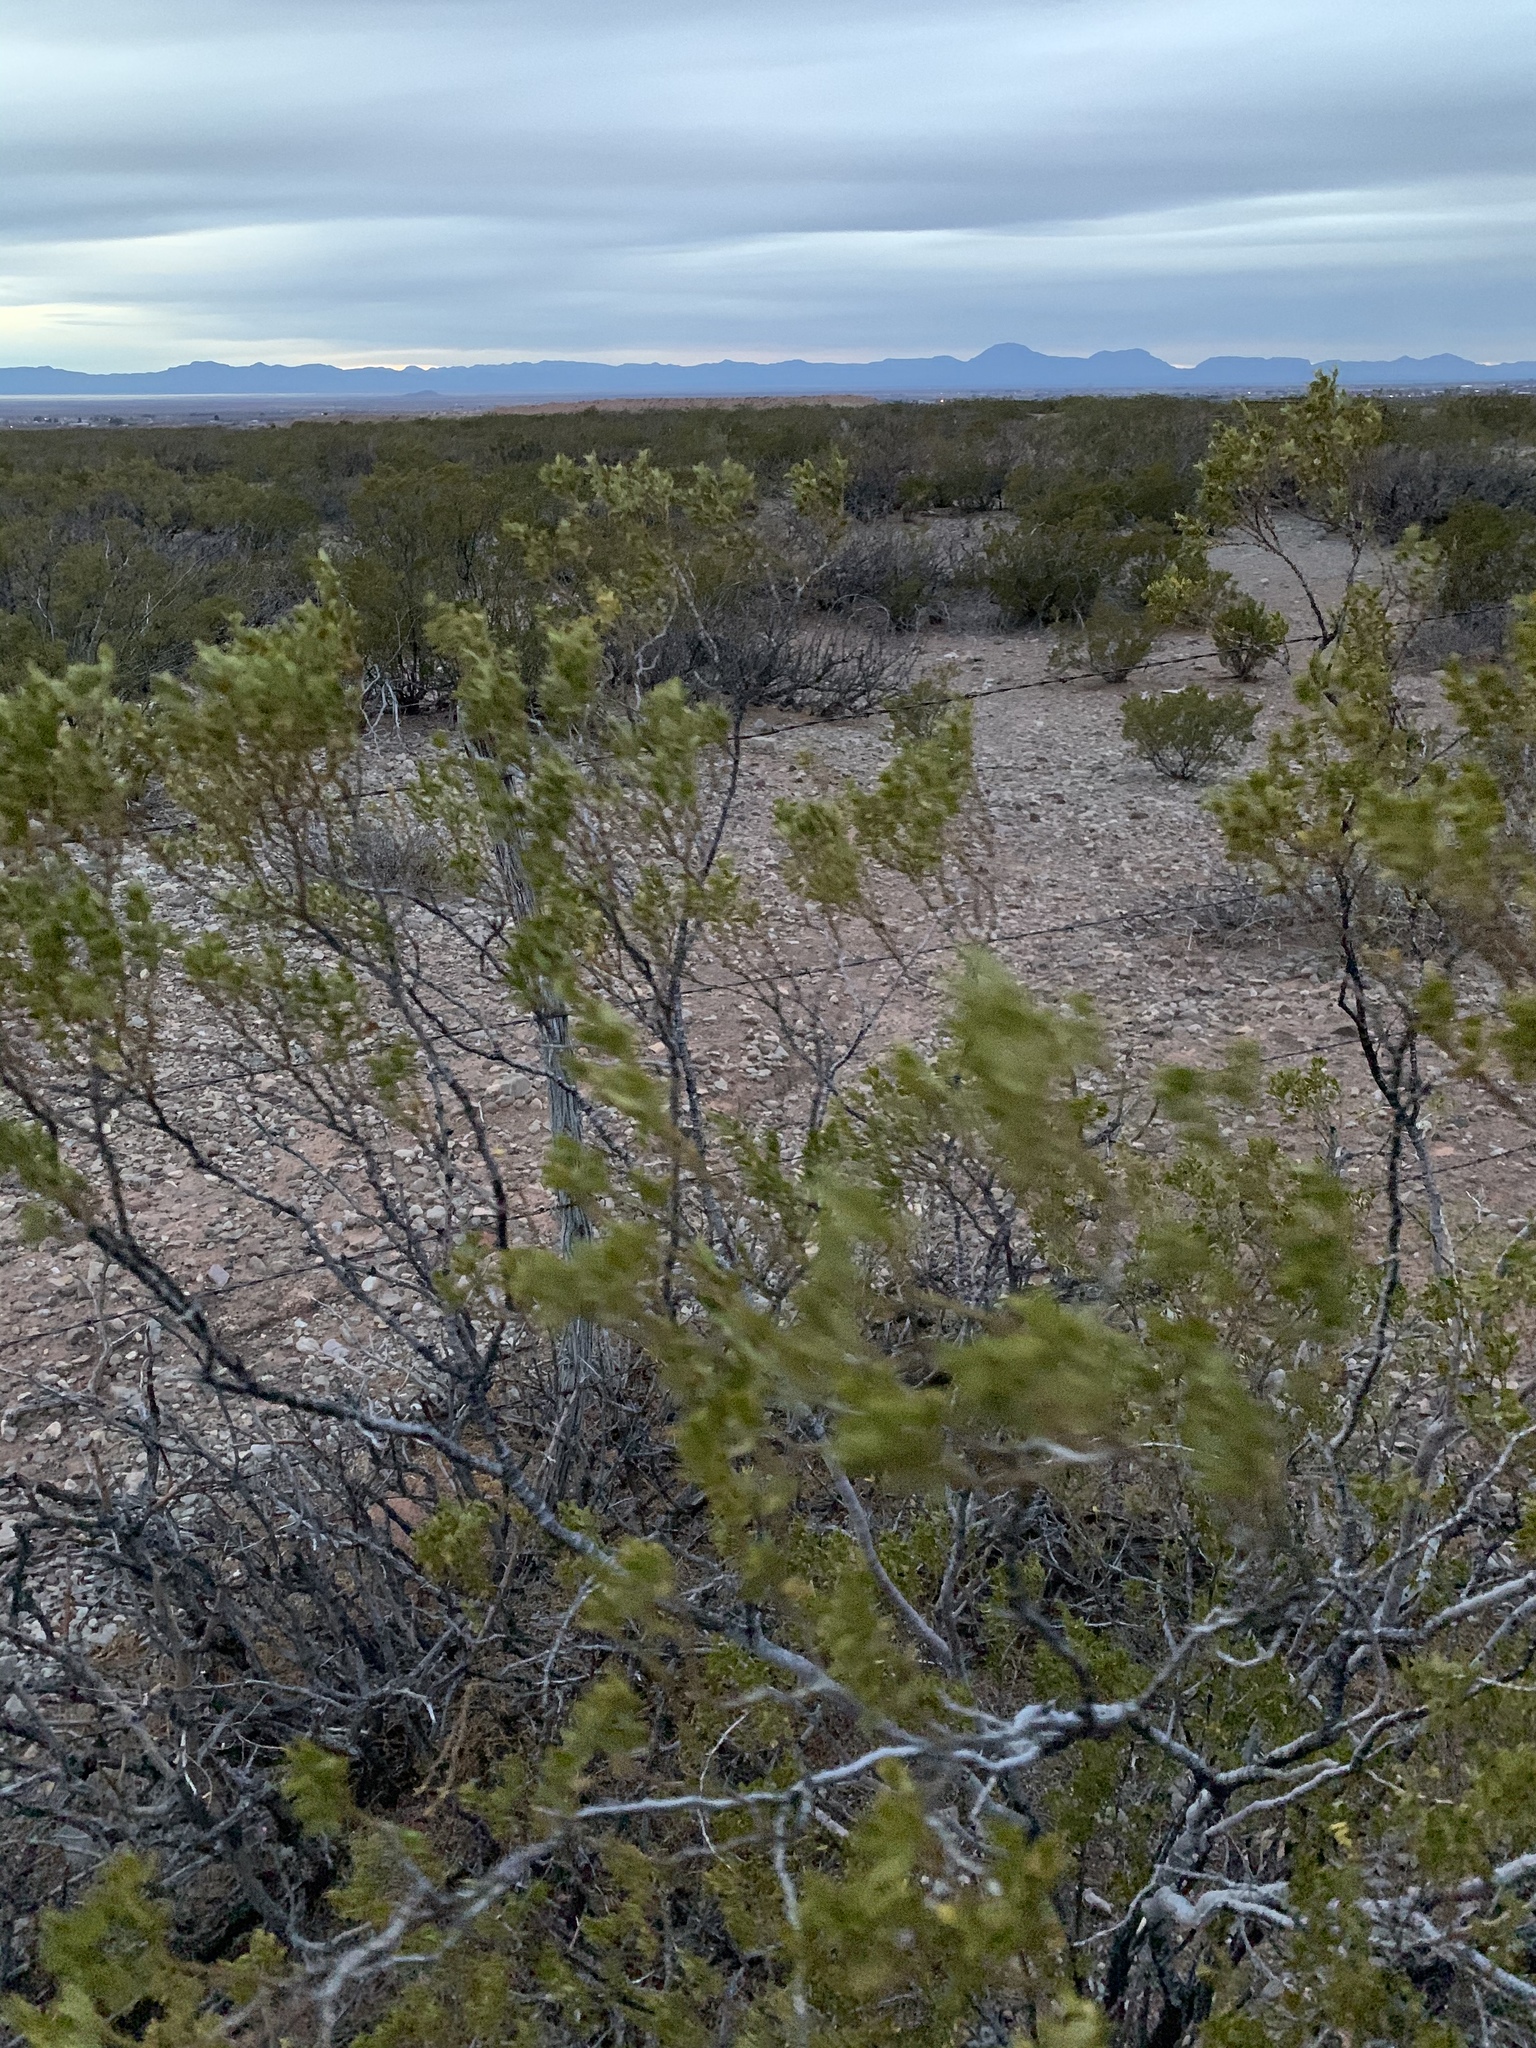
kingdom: Plantae
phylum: Tracheophyta
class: Magnoliopsida
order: Zygophyllales
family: Zygophyllaceae
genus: Larrea
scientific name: Larrea tridentata
